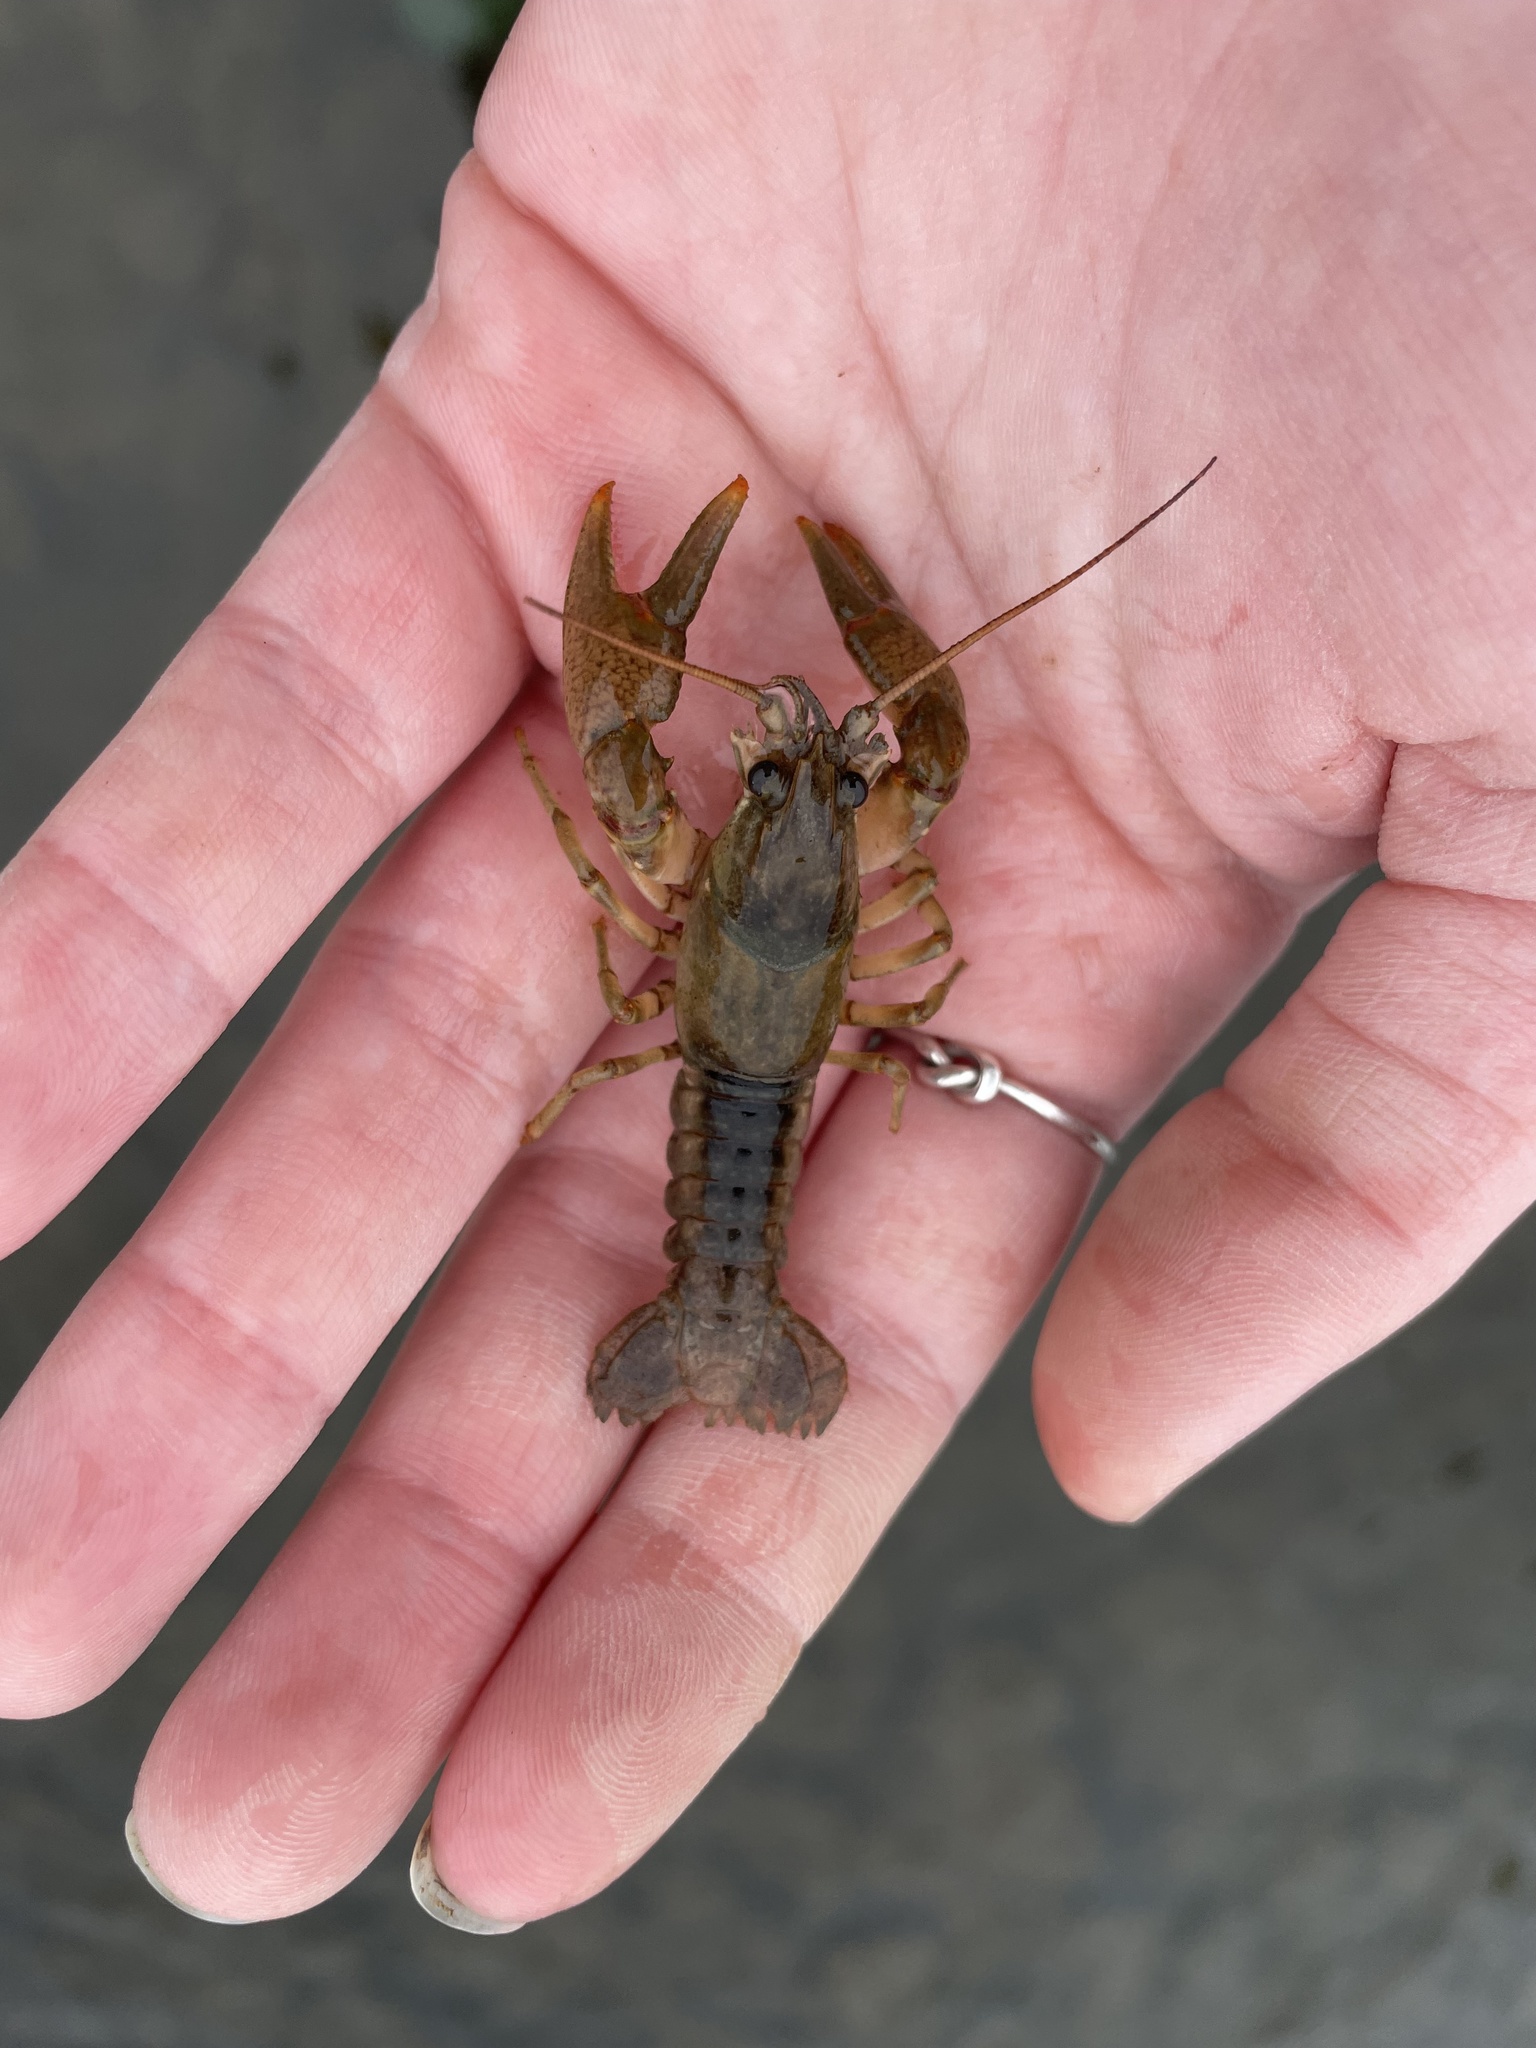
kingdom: Animalia
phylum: Arthropoda
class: Malacostraca
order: Decapoda
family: Cambaridae
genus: Faxonius
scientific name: Faxonius propinquus
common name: Northern clearwater crayfish
